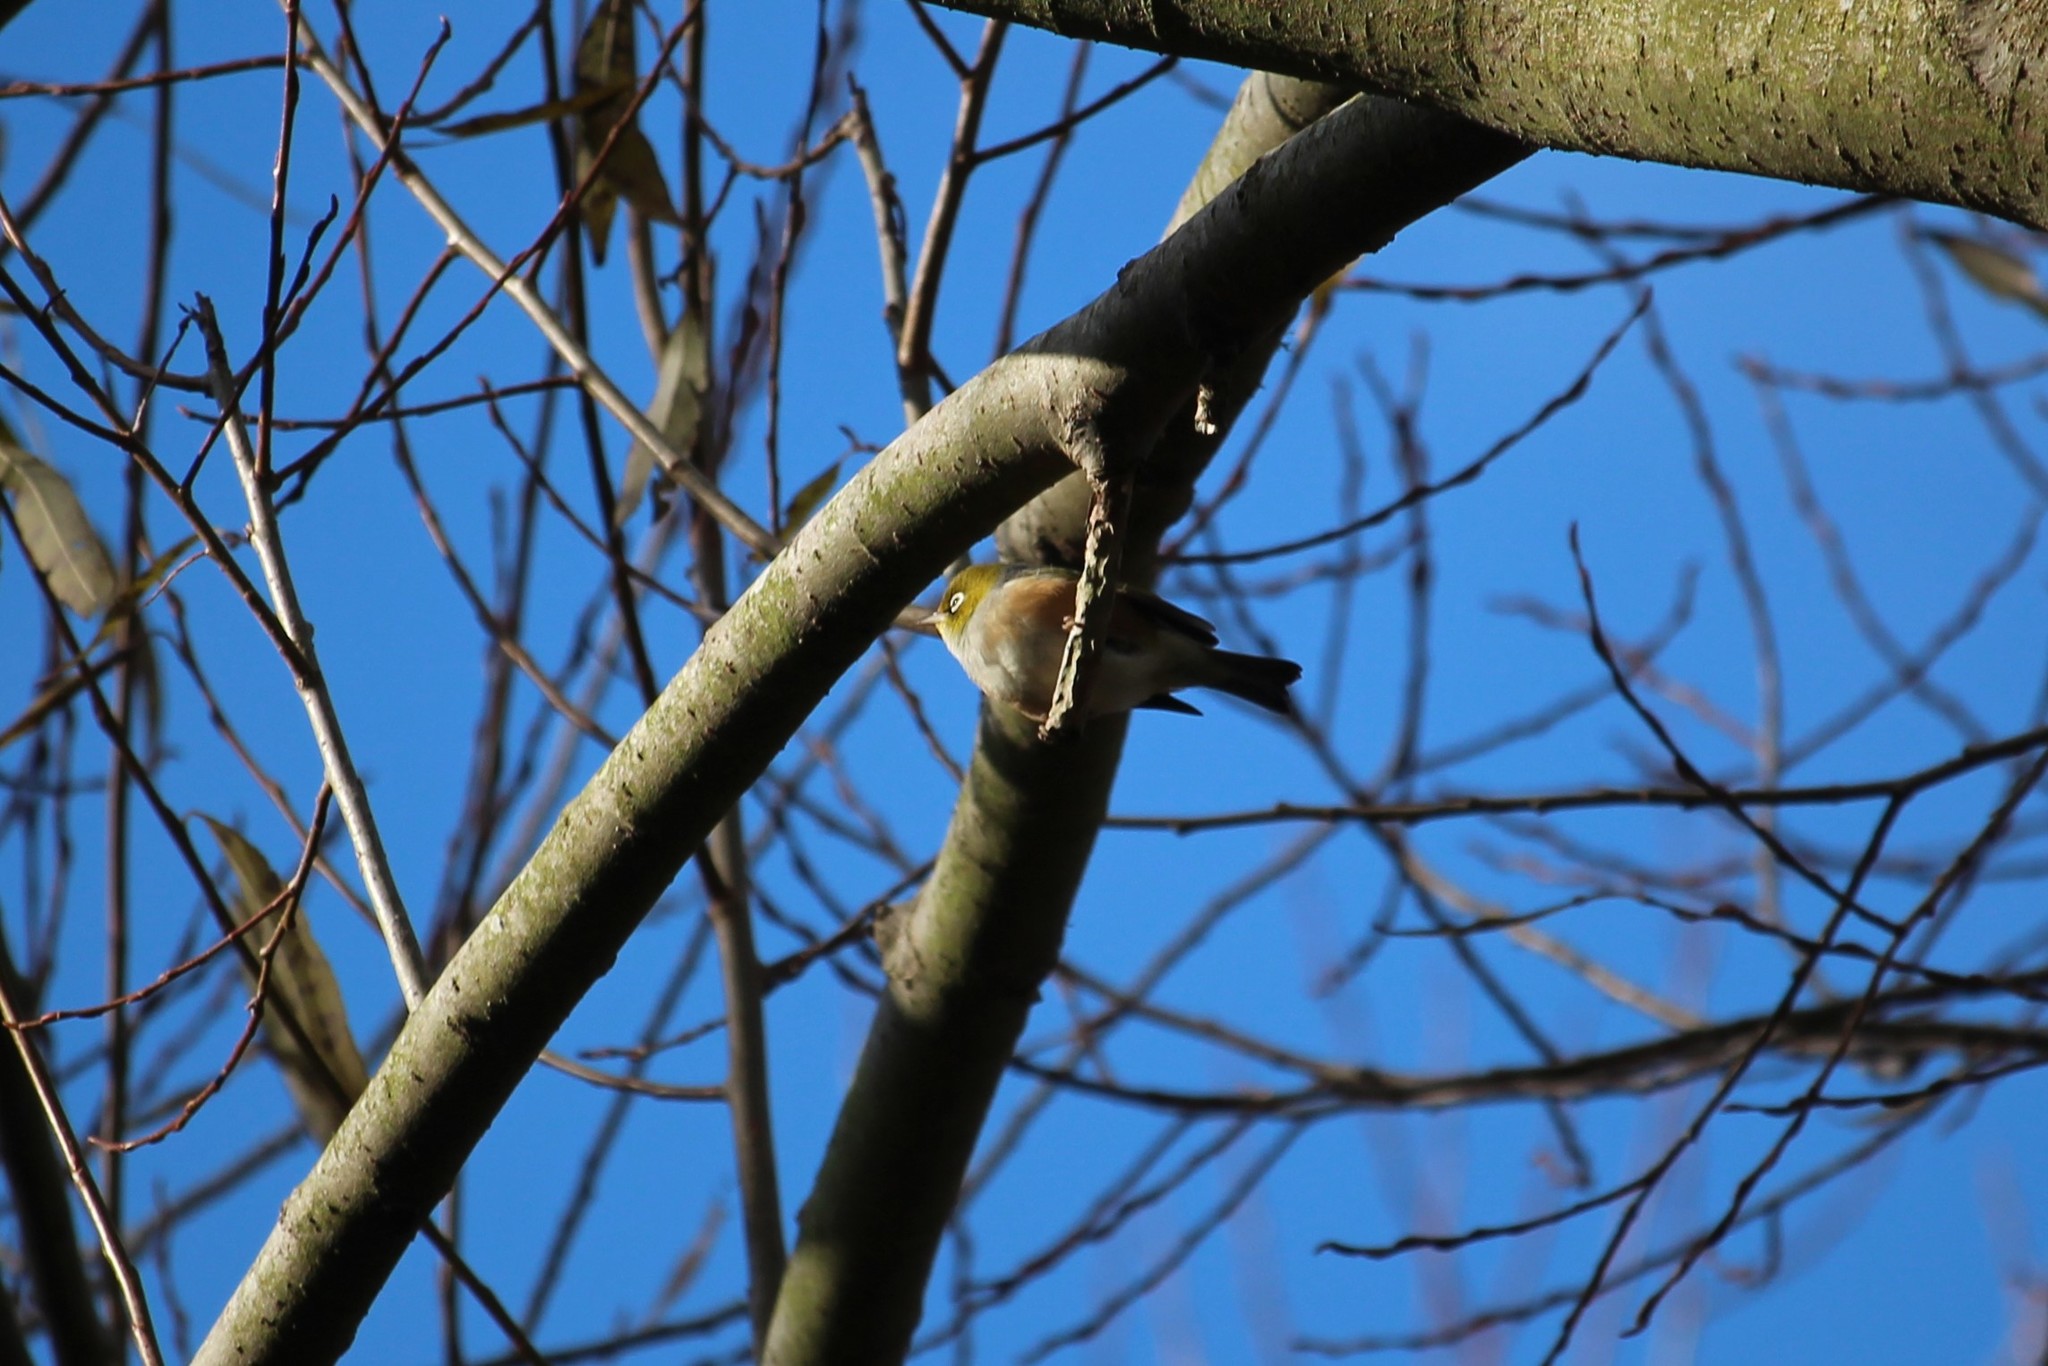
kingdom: Animalia
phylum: Chordata
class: Aves
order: Passeriformes
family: Zosteropidae
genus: Zosterops
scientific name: Zosterops lateralis
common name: Silvereye
